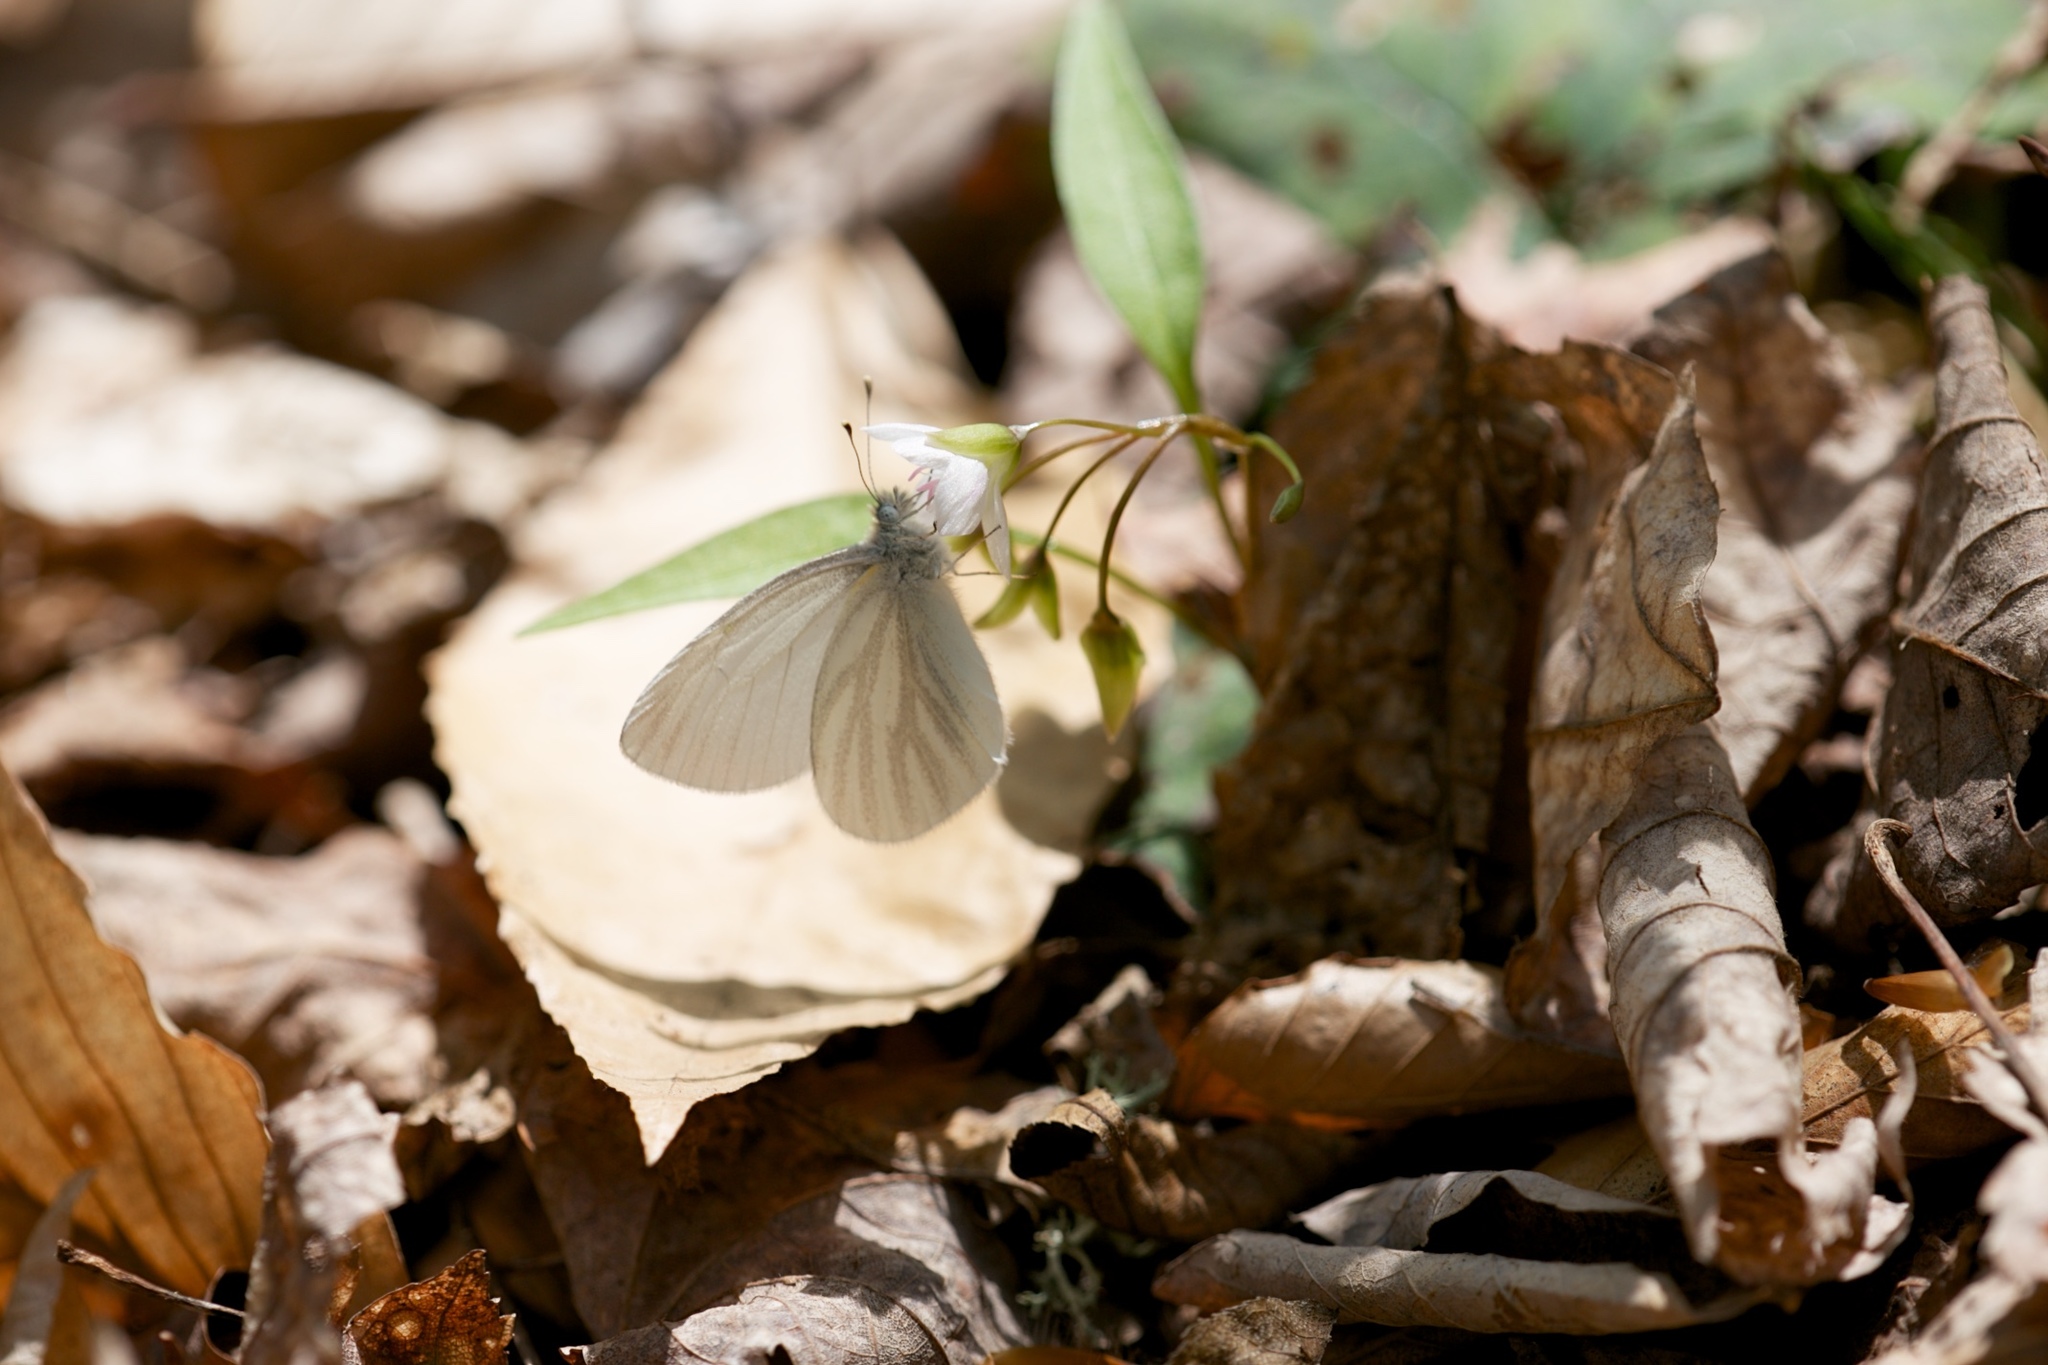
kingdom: Animalia
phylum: Arthropoda
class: Insecta
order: Lepidoptera
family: Pieridae
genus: Pieris
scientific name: Pieris virginiensis
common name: West virginia white
